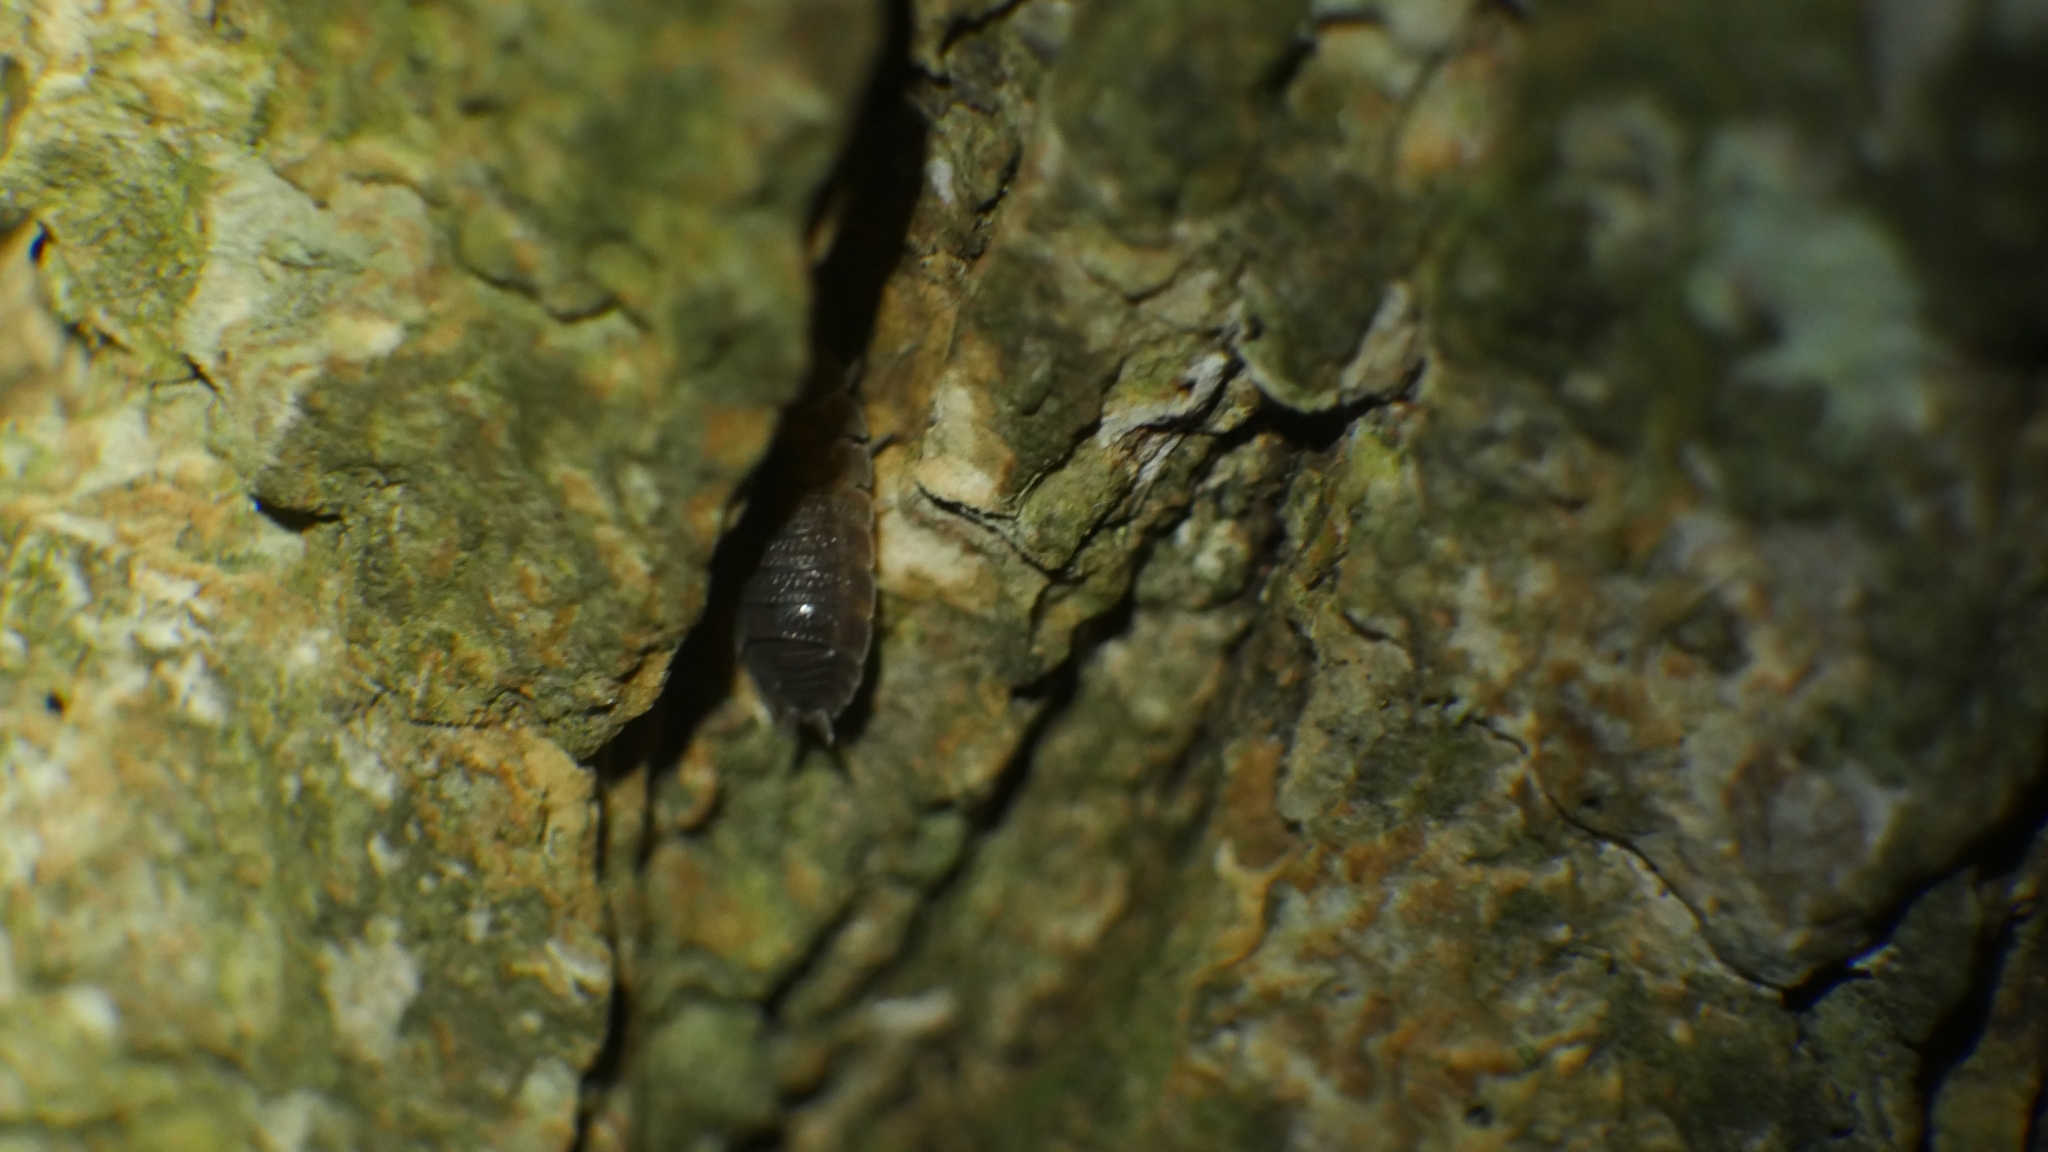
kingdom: Animalia
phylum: Arthropoda
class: Malacostraca
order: Isopoda
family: Porcellionidae
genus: Porcellio
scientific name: Porcellio scaber
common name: Common rough woodlouse
